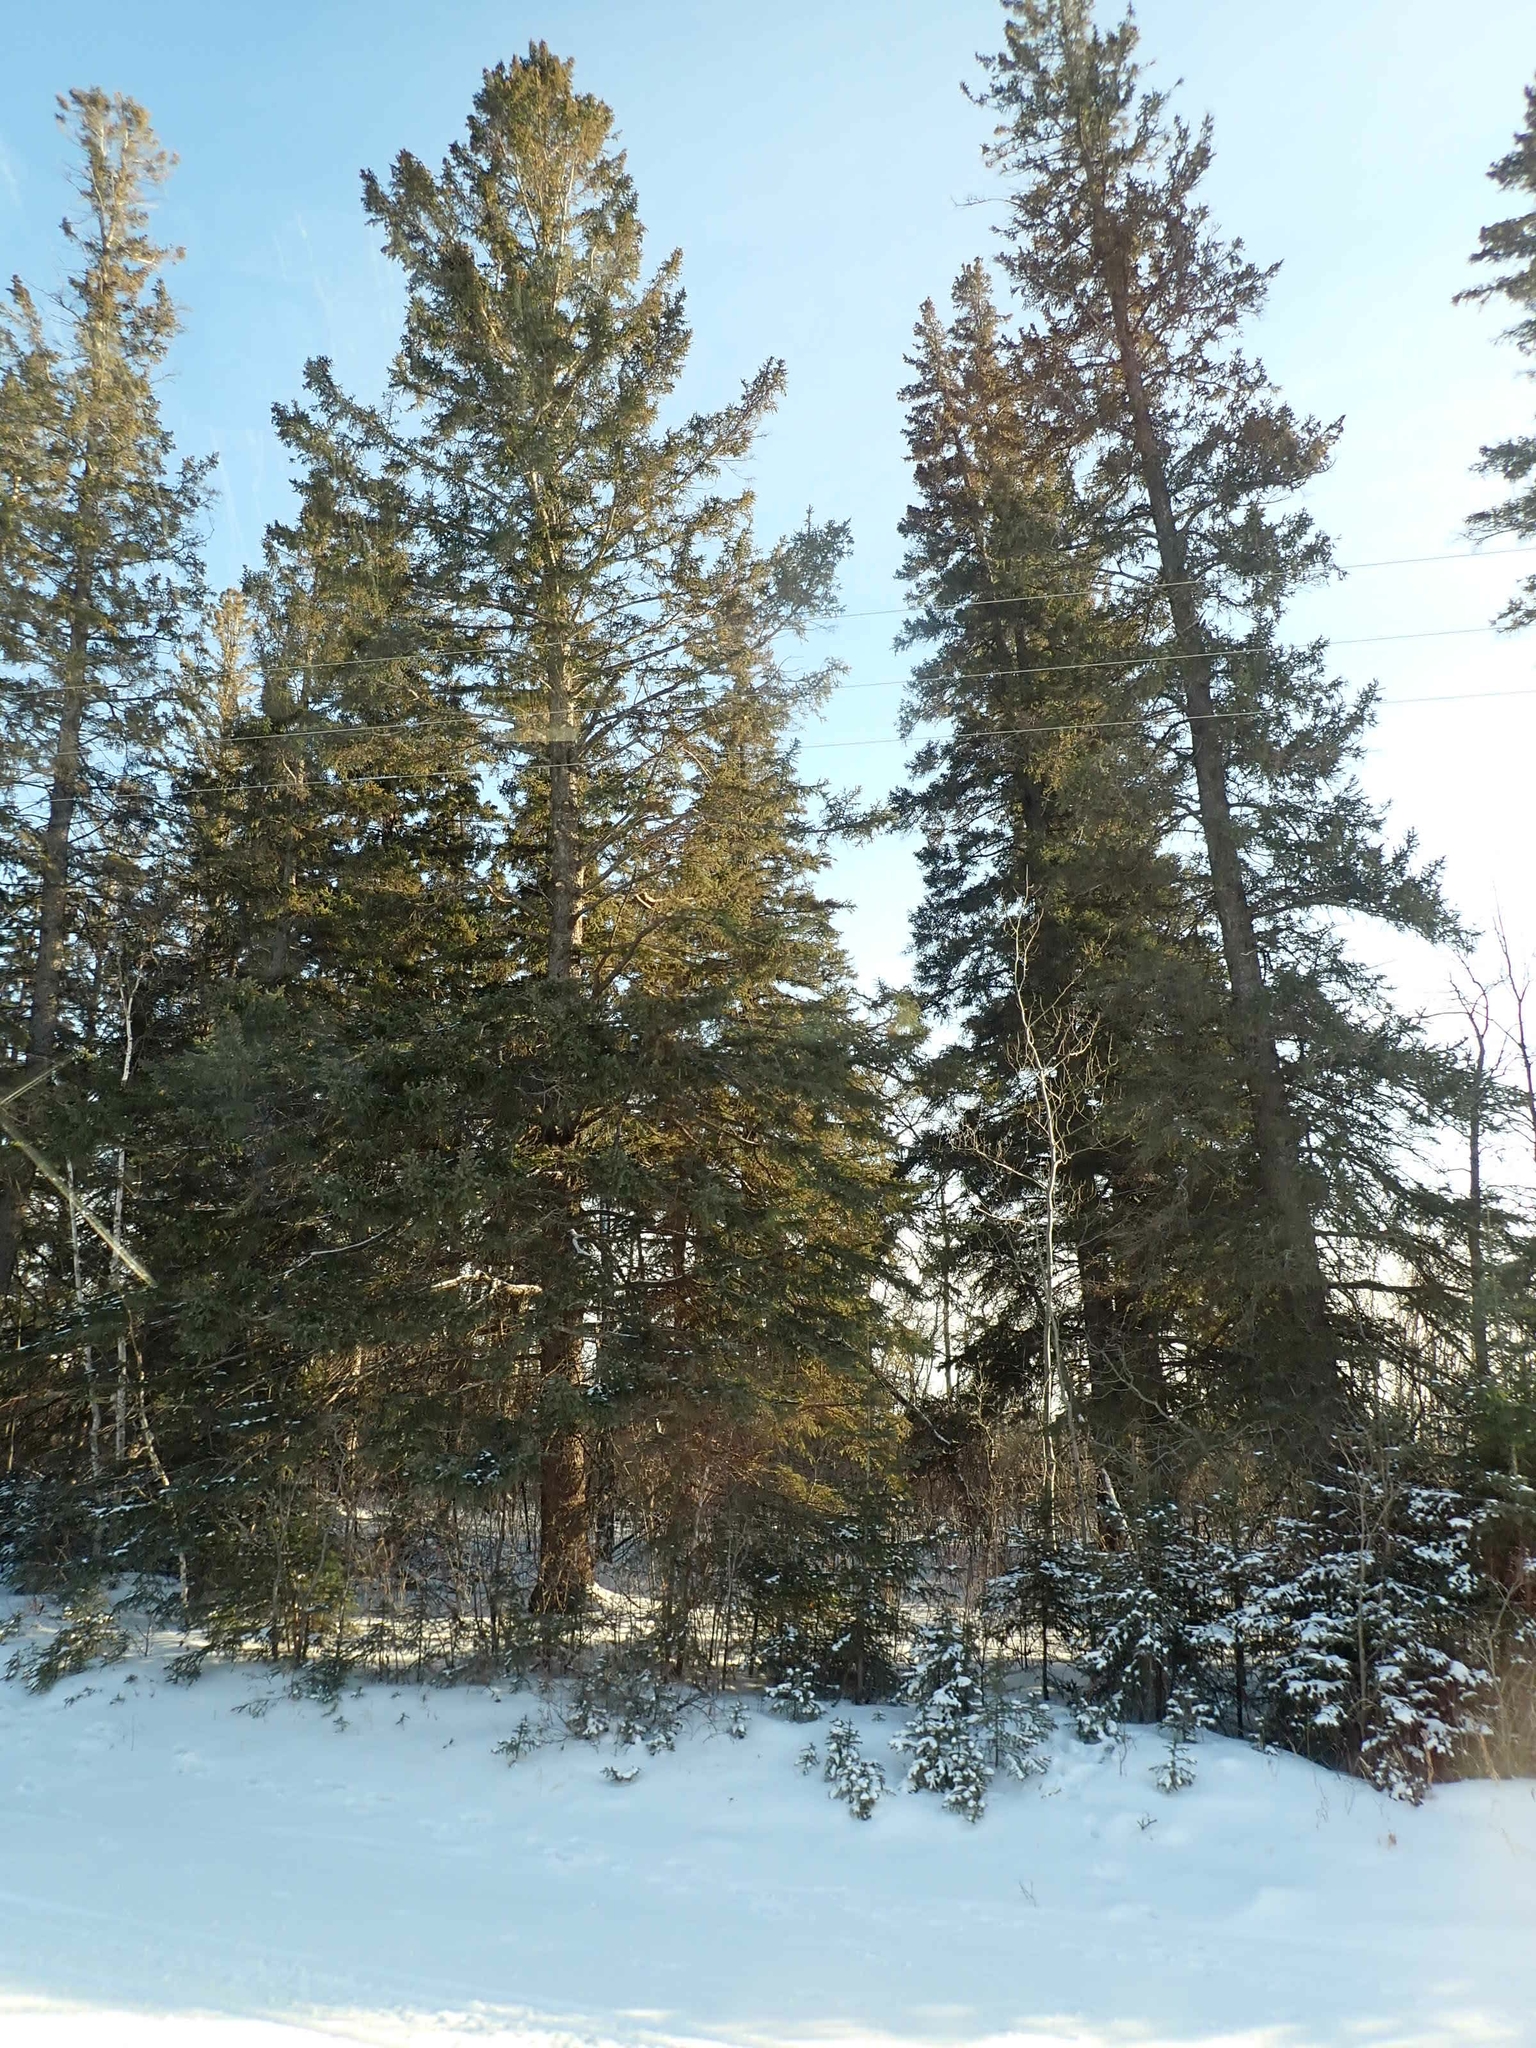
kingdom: Plantae
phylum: Tracheophyta
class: Pinopsida
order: Pinales
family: Pinaceae
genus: Picea
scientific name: Picea glauca
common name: White spruce
